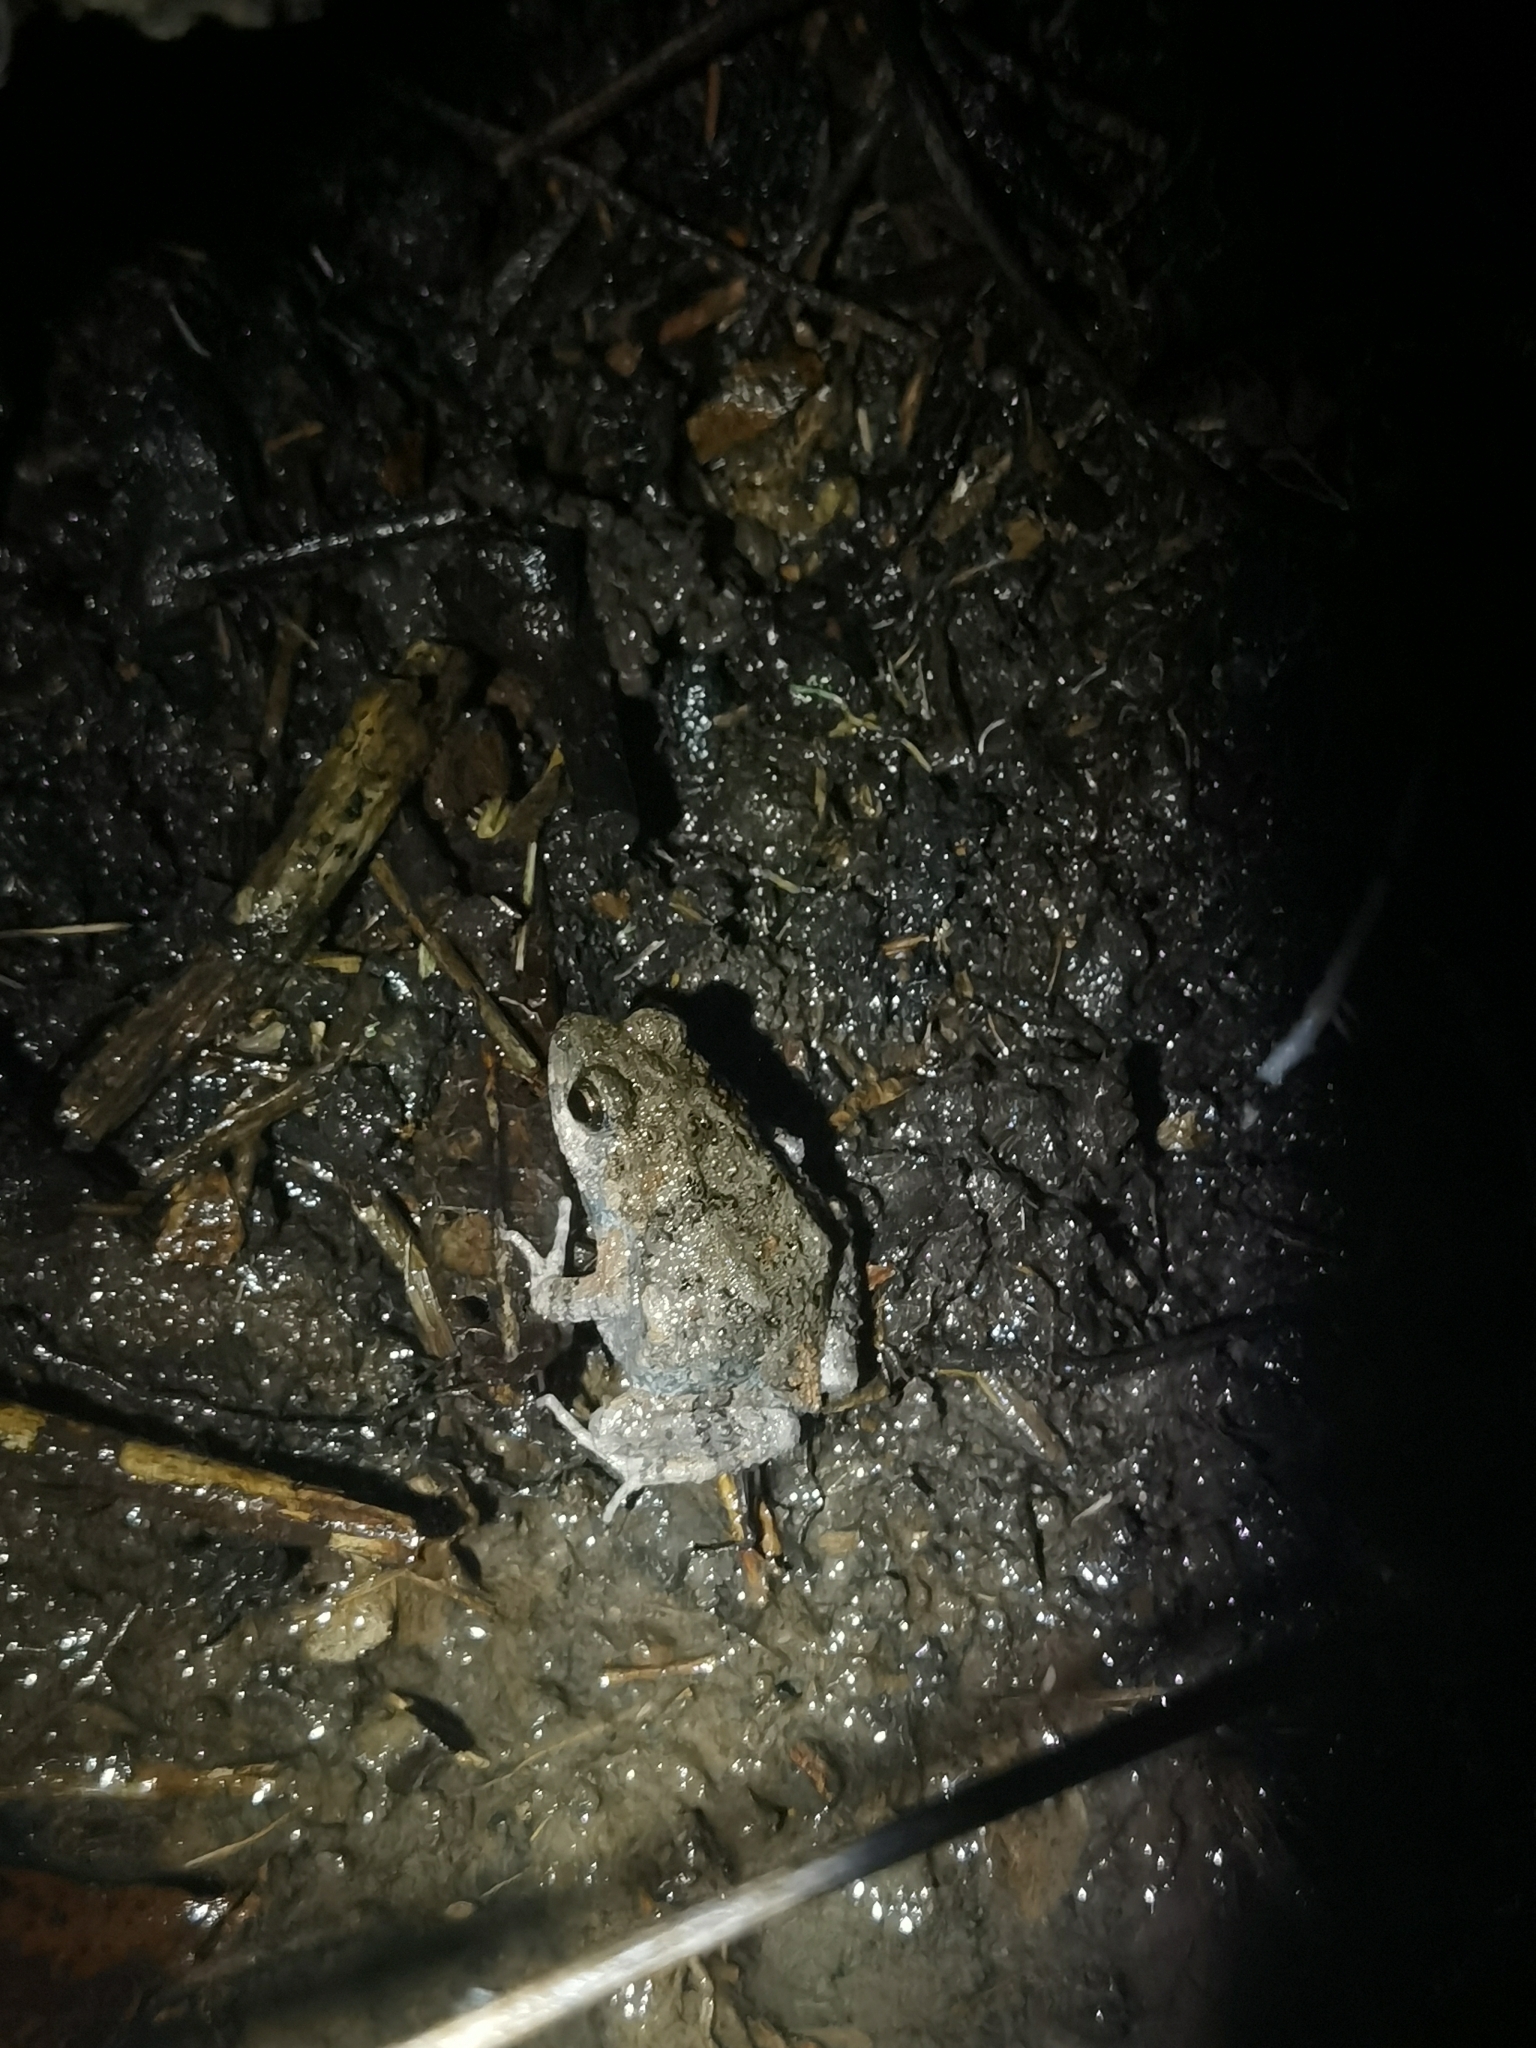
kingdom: Animalia
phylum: Chordata
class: Amphibia
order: Anura
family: Leptodactylidae
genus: Engystomops
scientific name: Engystomops pustulosus
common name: Tungara frog
